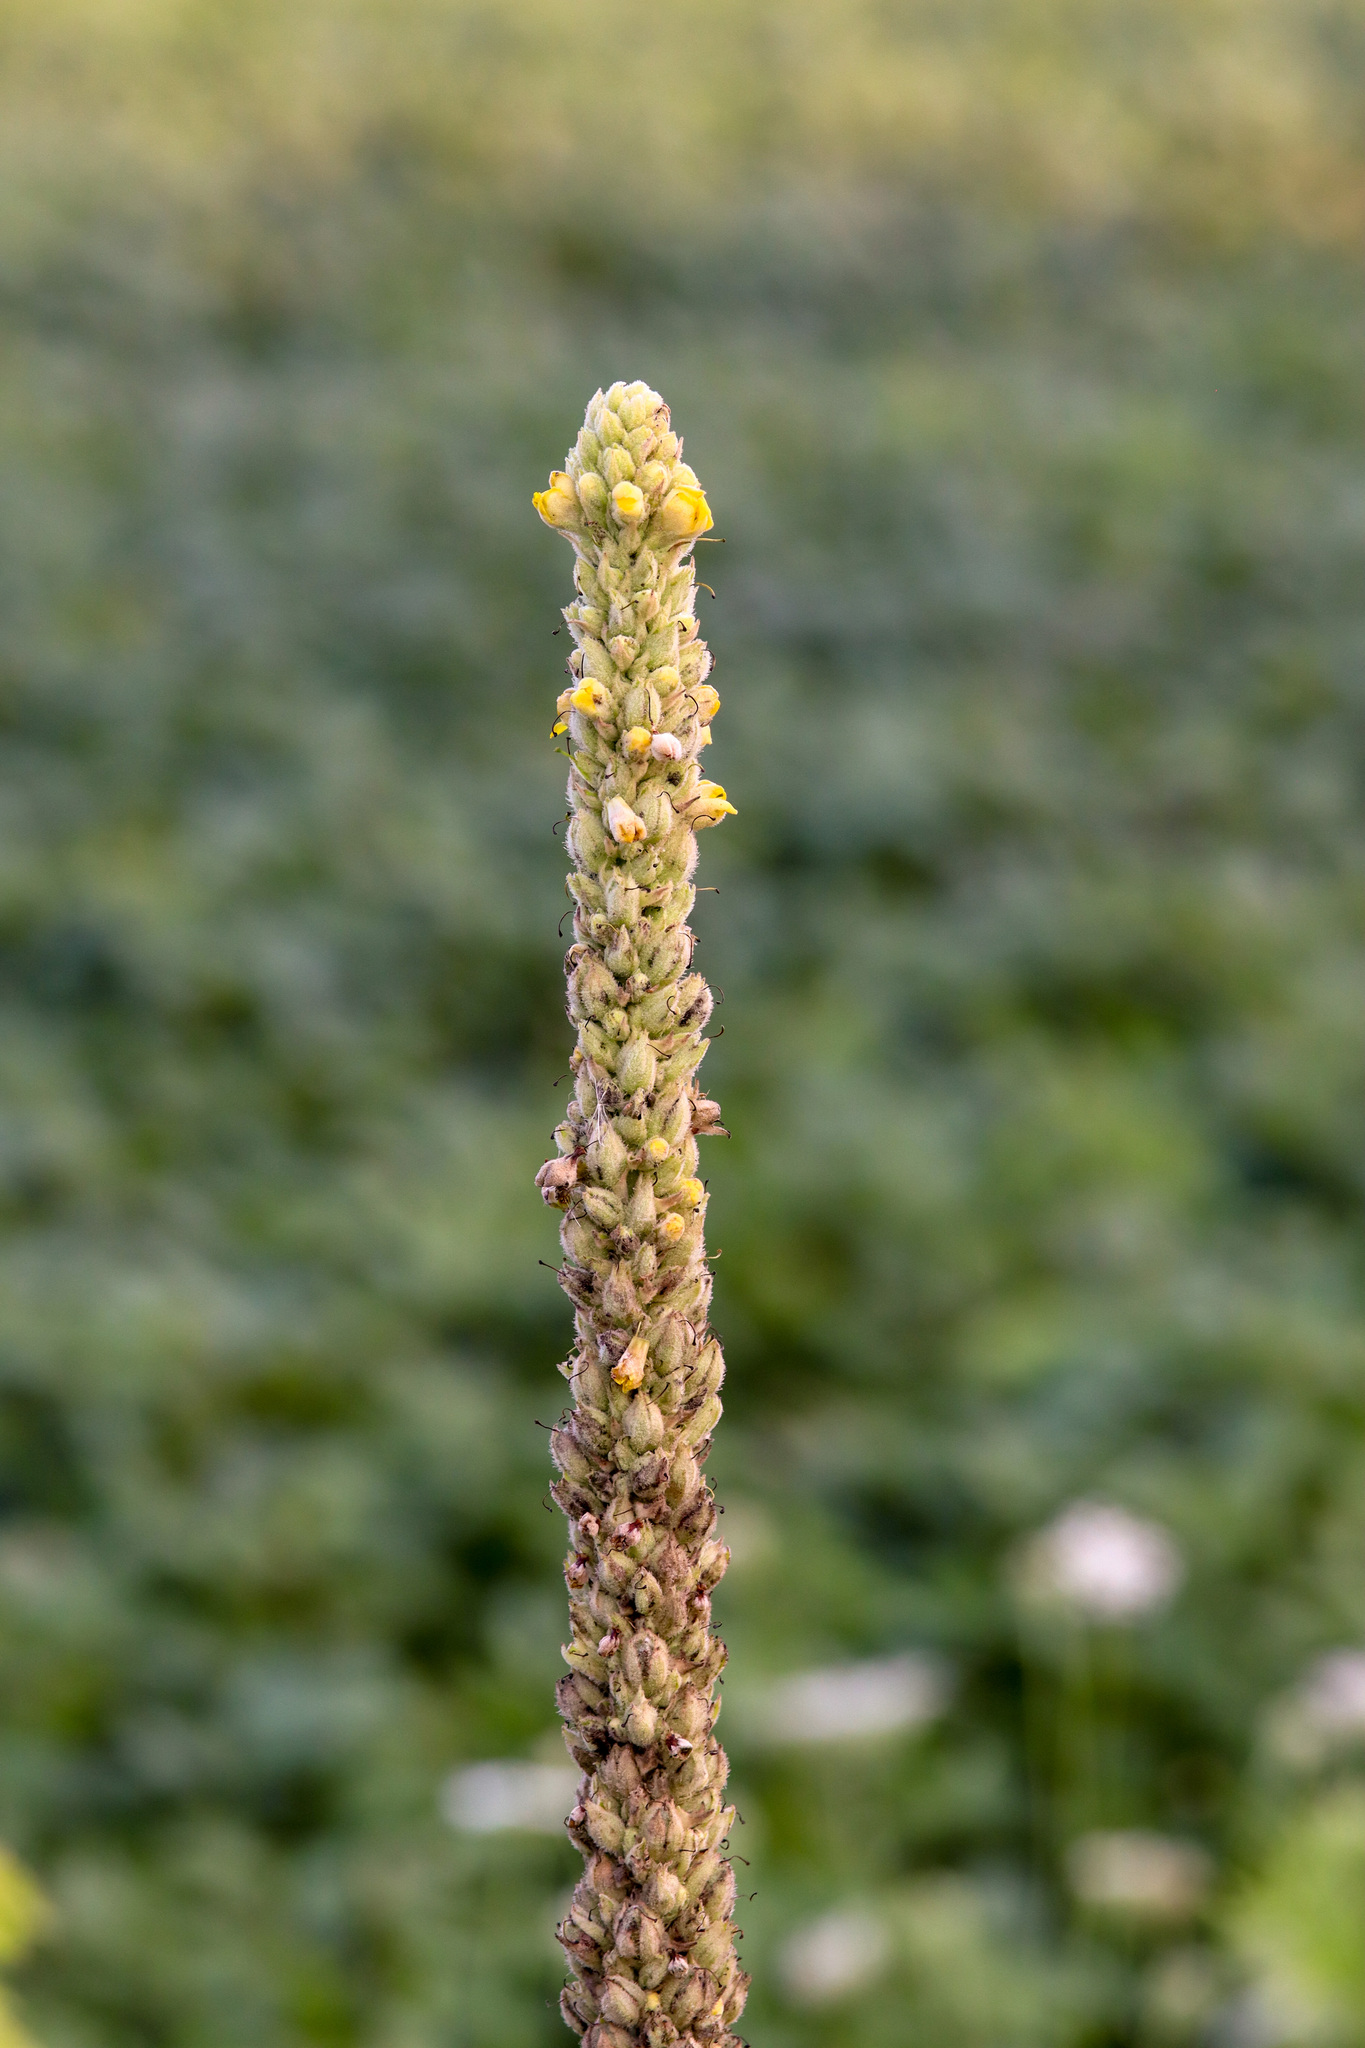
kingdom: Plantae
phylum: Tracheophyta
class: Magnoliopsida
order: Lamiales
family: Scrophulariaceae
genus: Verbascum
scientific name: Verbascum thapsus
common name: Common mullein
